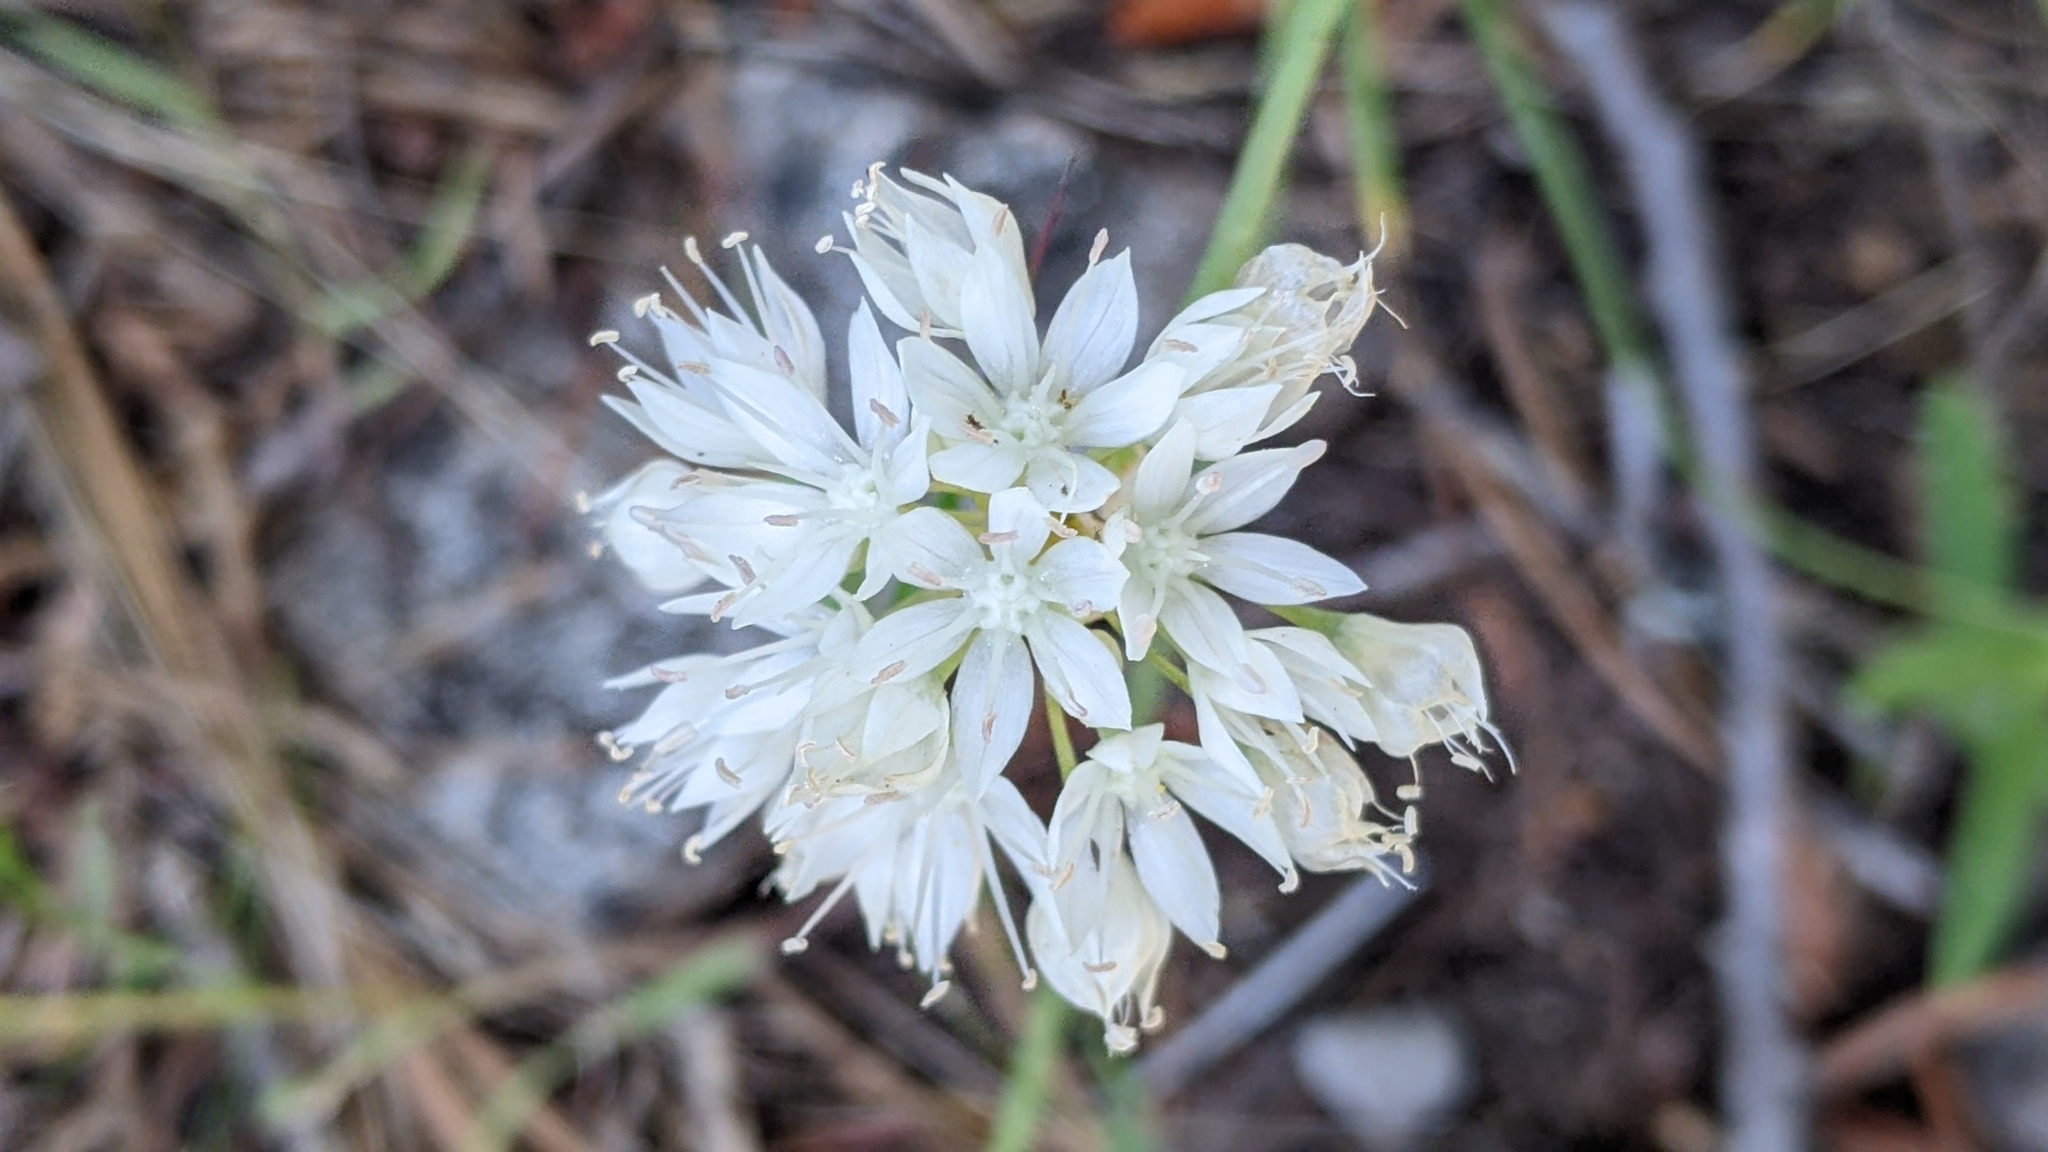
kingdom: Plantae
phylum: Tracheophyta
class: Liliopsida
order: Asparagales
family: Amaryllidaceae
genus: Allium
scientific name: Allium amplectens
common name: Narrow-leaved onion
